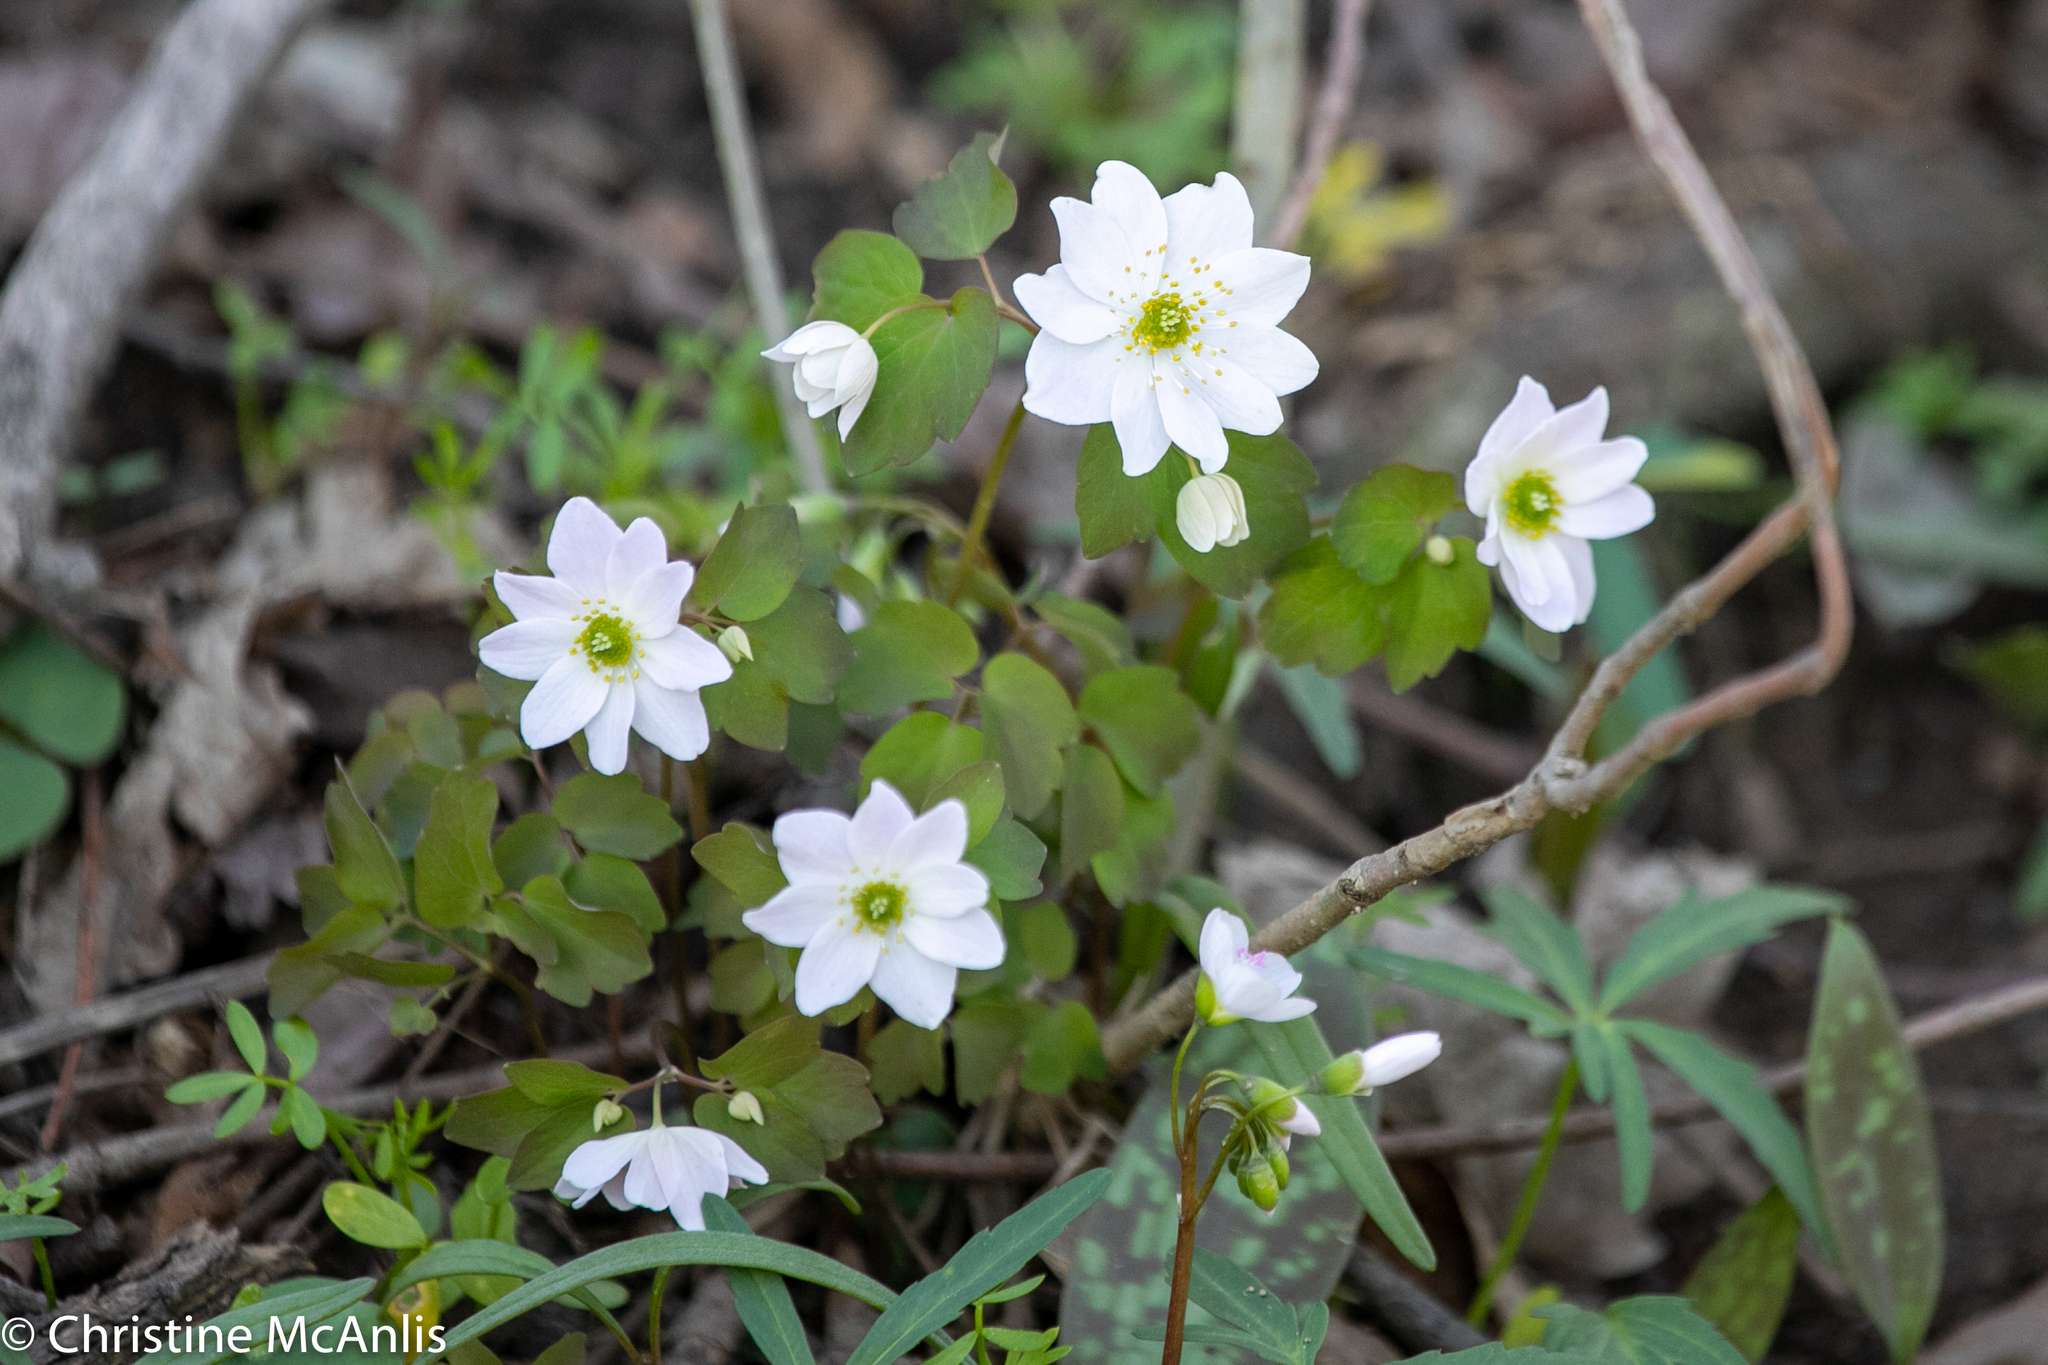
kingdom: Plantae
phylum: Tracheophyta
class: Magnoliopsida
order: Ranunculales
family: Ranunculaceae
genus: Thalictrum
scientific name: Thalictrum thalictroides
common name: Rue-anemone
